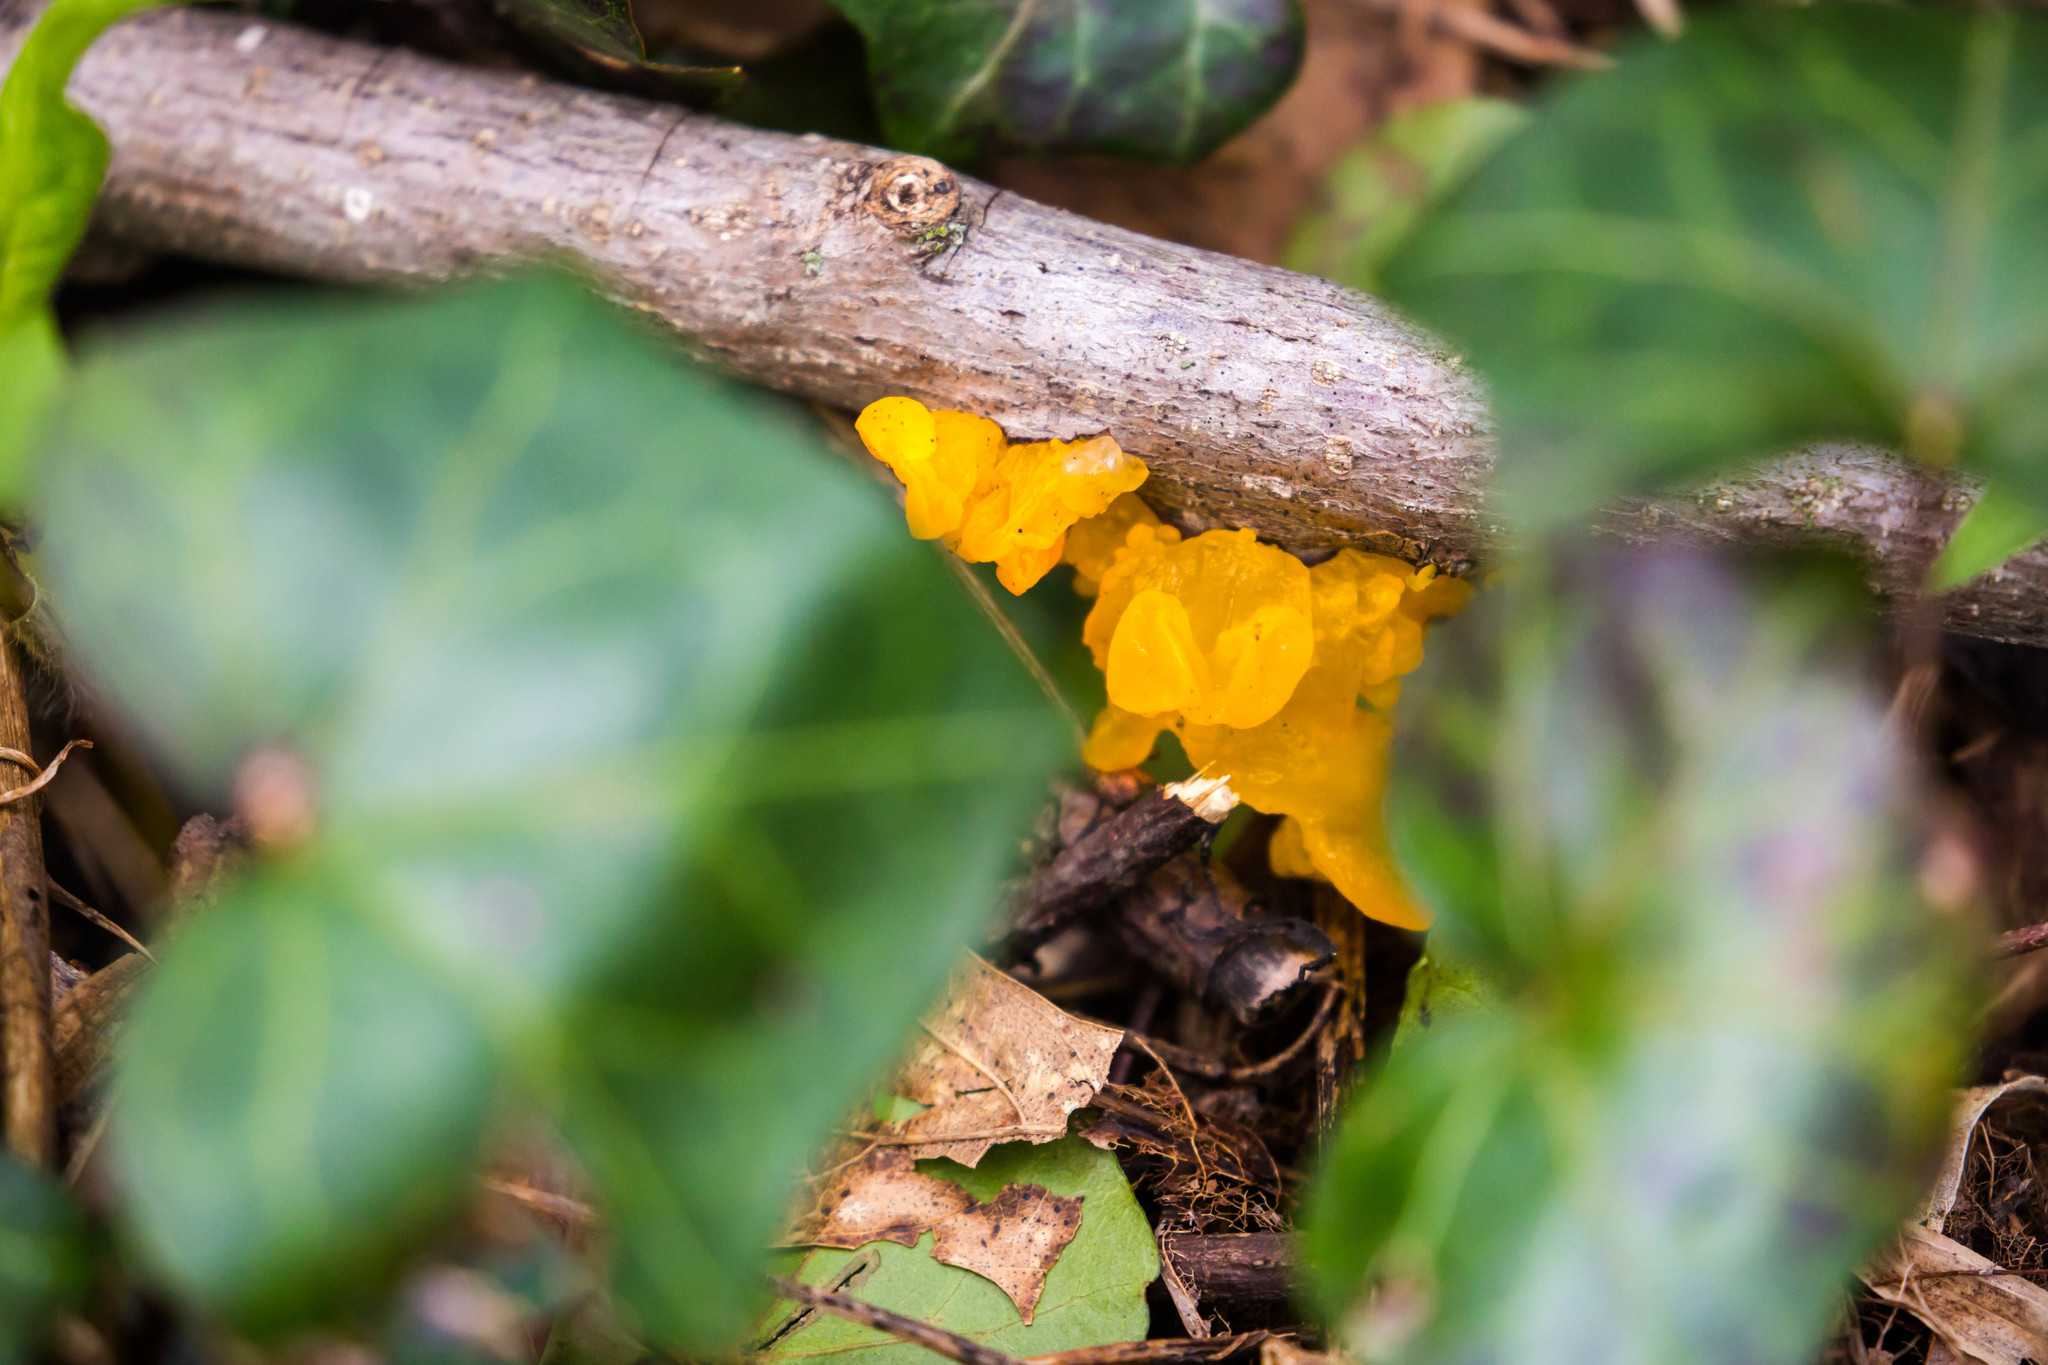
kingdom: Fungi
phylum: Basidiomycota
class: Tremellomycetes
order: Tremellales
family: Tremellaceae
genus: Tremella
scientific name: Tremella mesenterica
